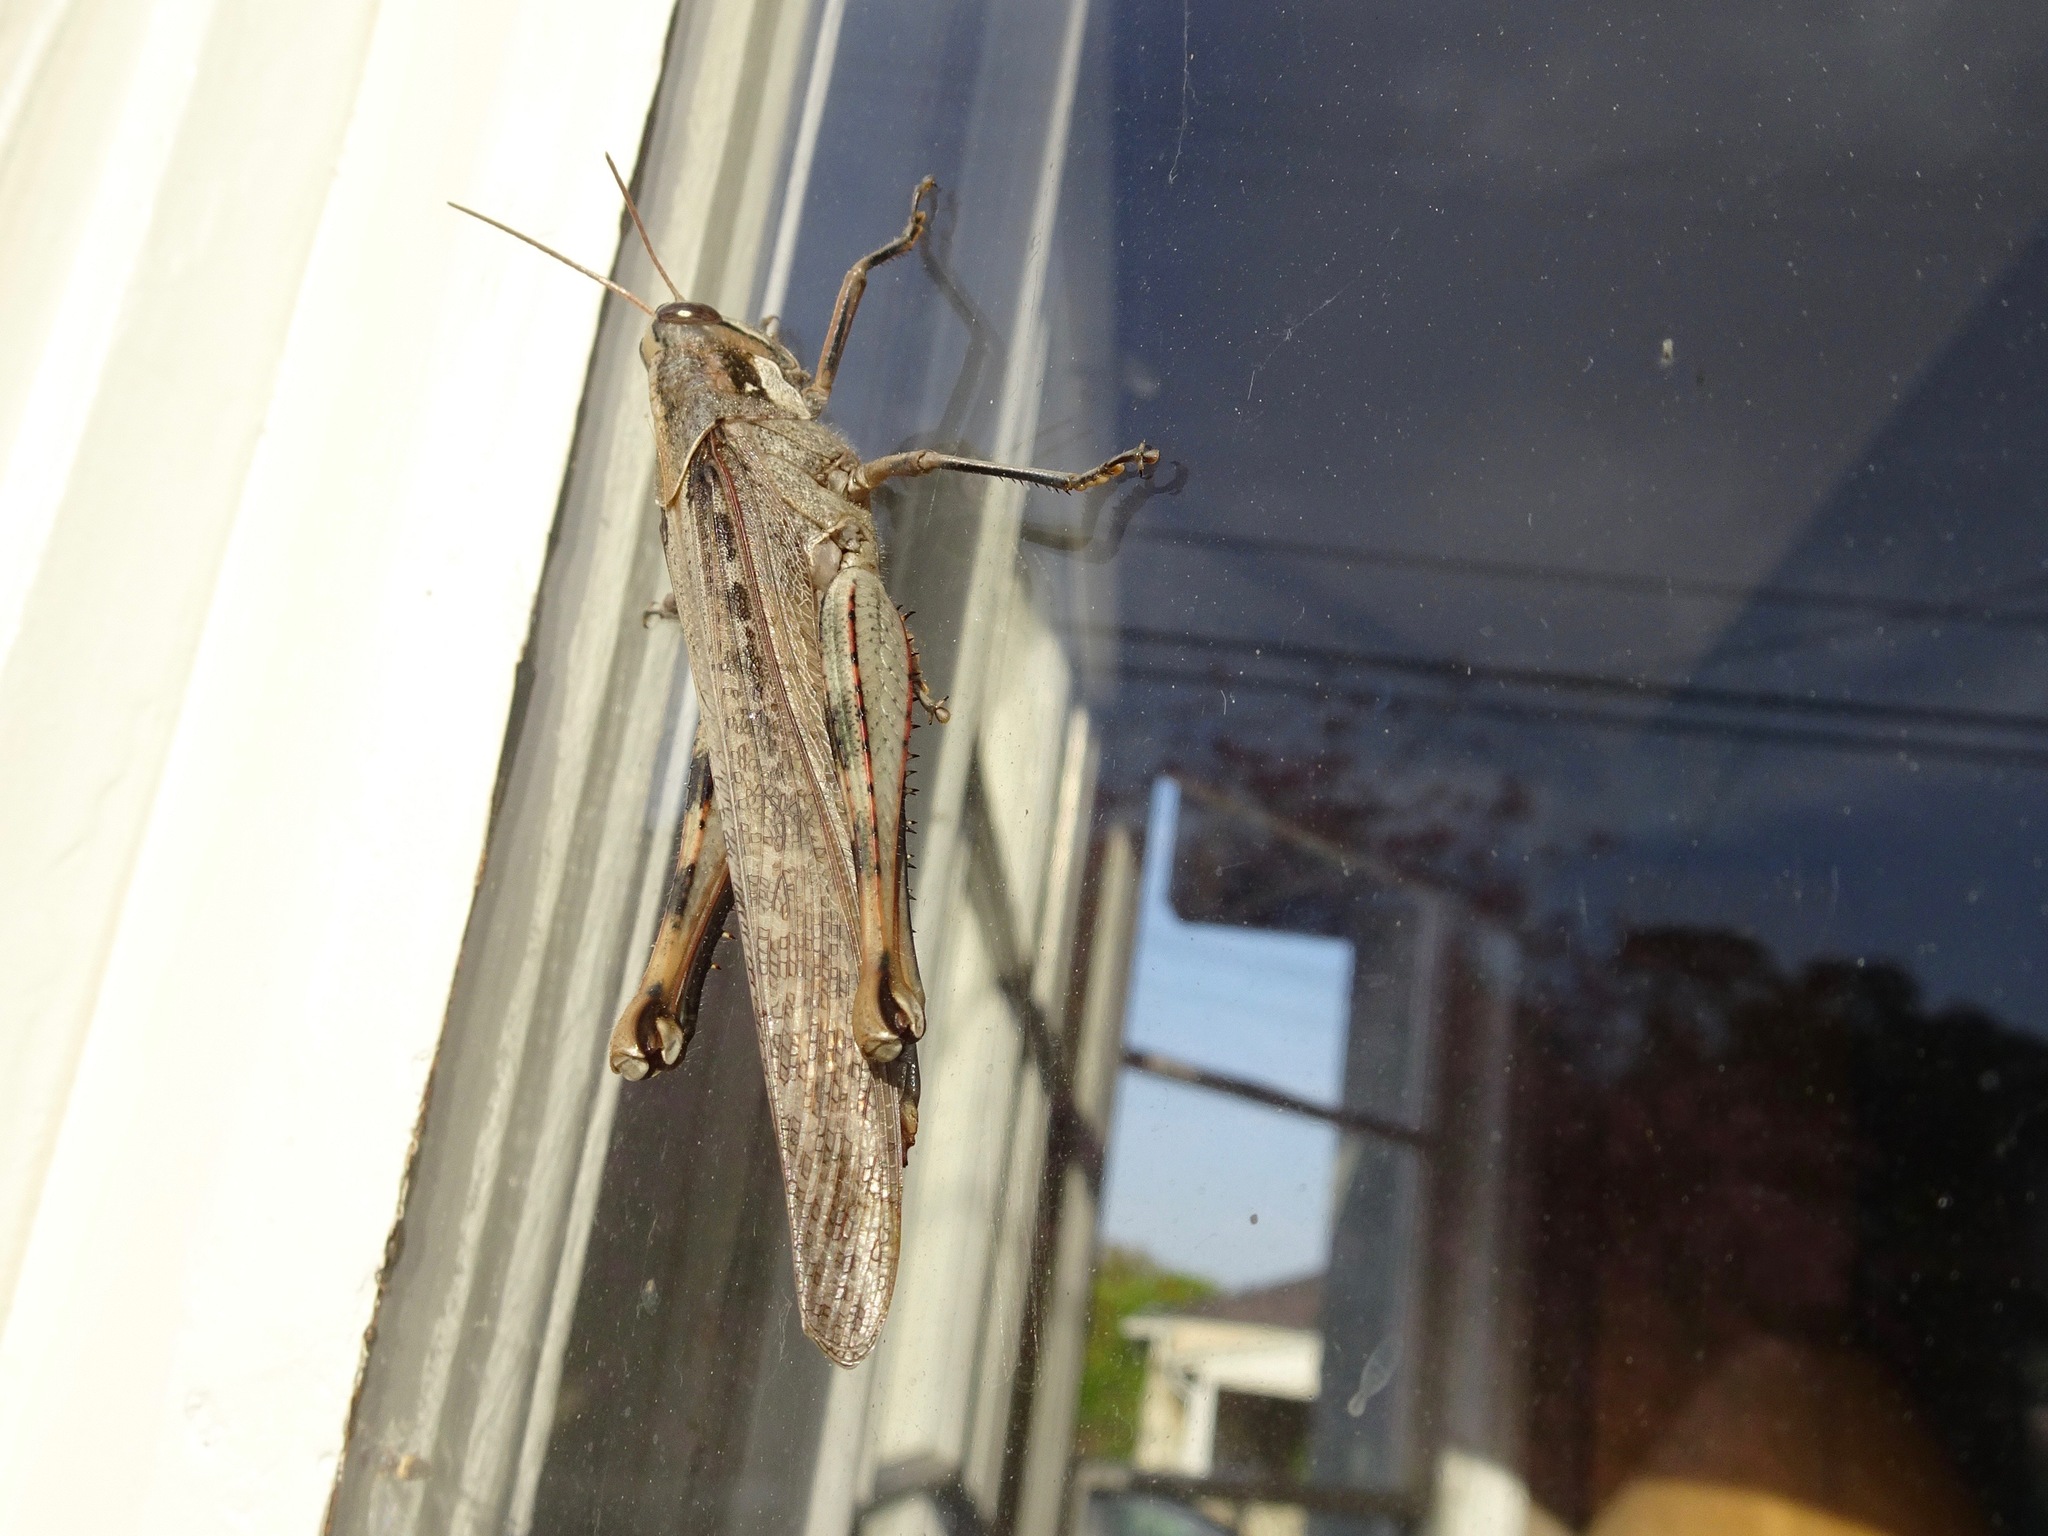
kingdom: Animalia
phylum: Arthropoda
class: Insecta
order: Orthoptera
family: Acrididae
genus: Schistocerca
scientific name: Schistocerca nitens
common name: Vagrant grasshopper
